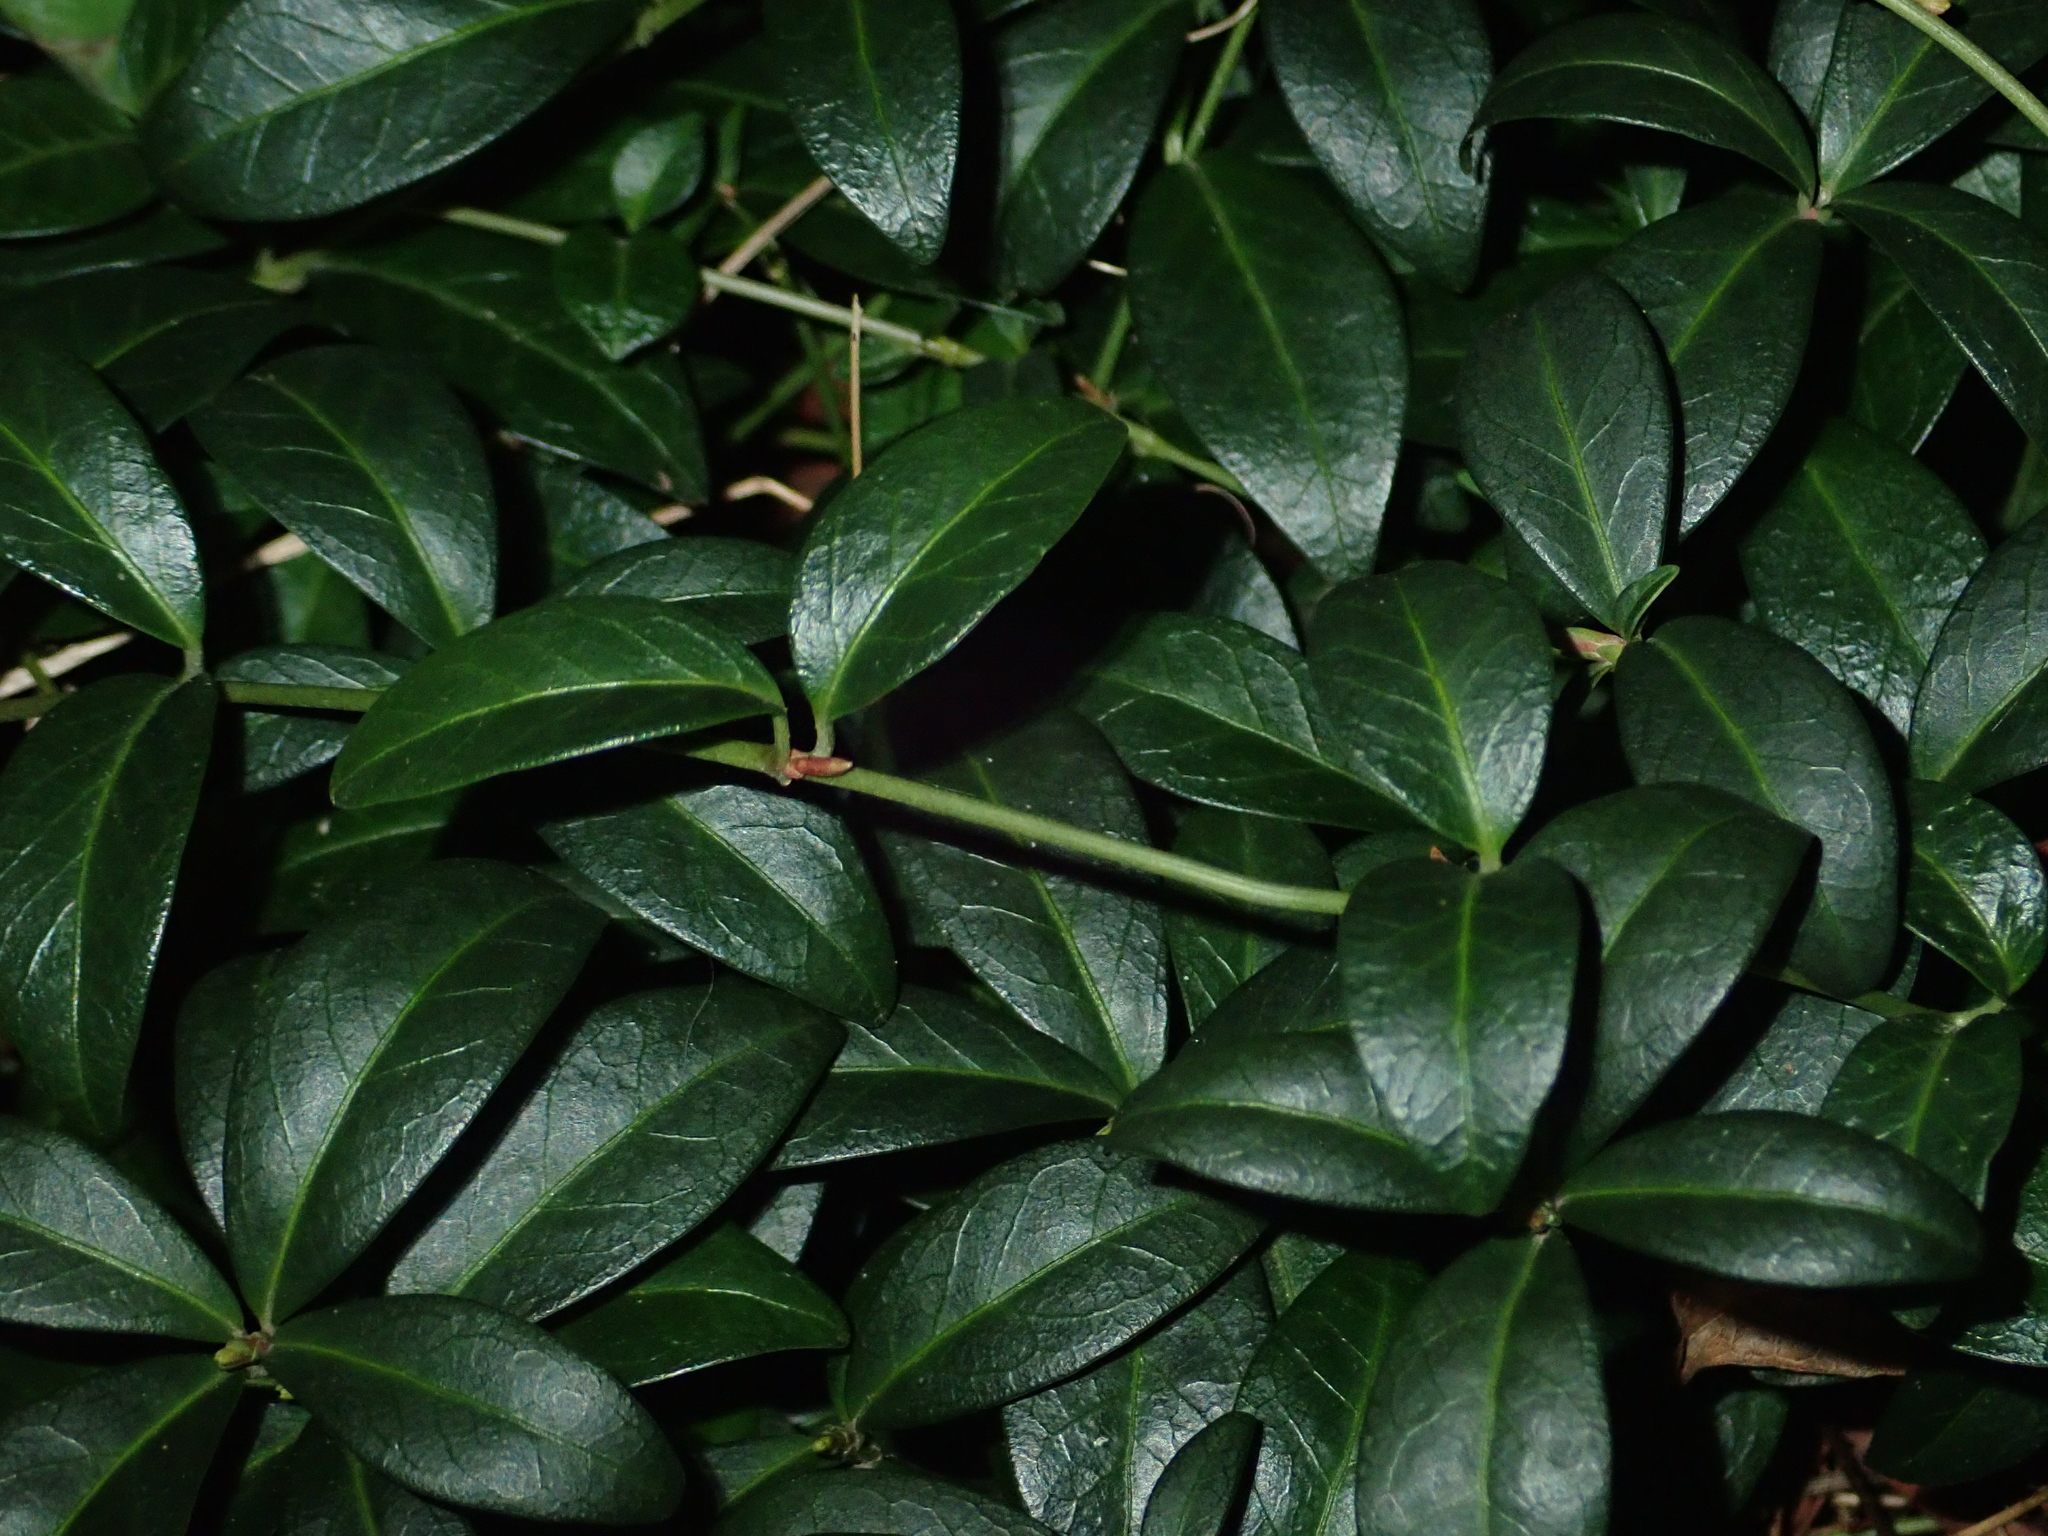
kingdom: Plantae
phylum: Tracheophyta
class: Magnoliopsida
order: Gentianales
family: Apocynaceae
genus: Vinca
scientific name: Vinca minor
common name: Lesser periwinkle
